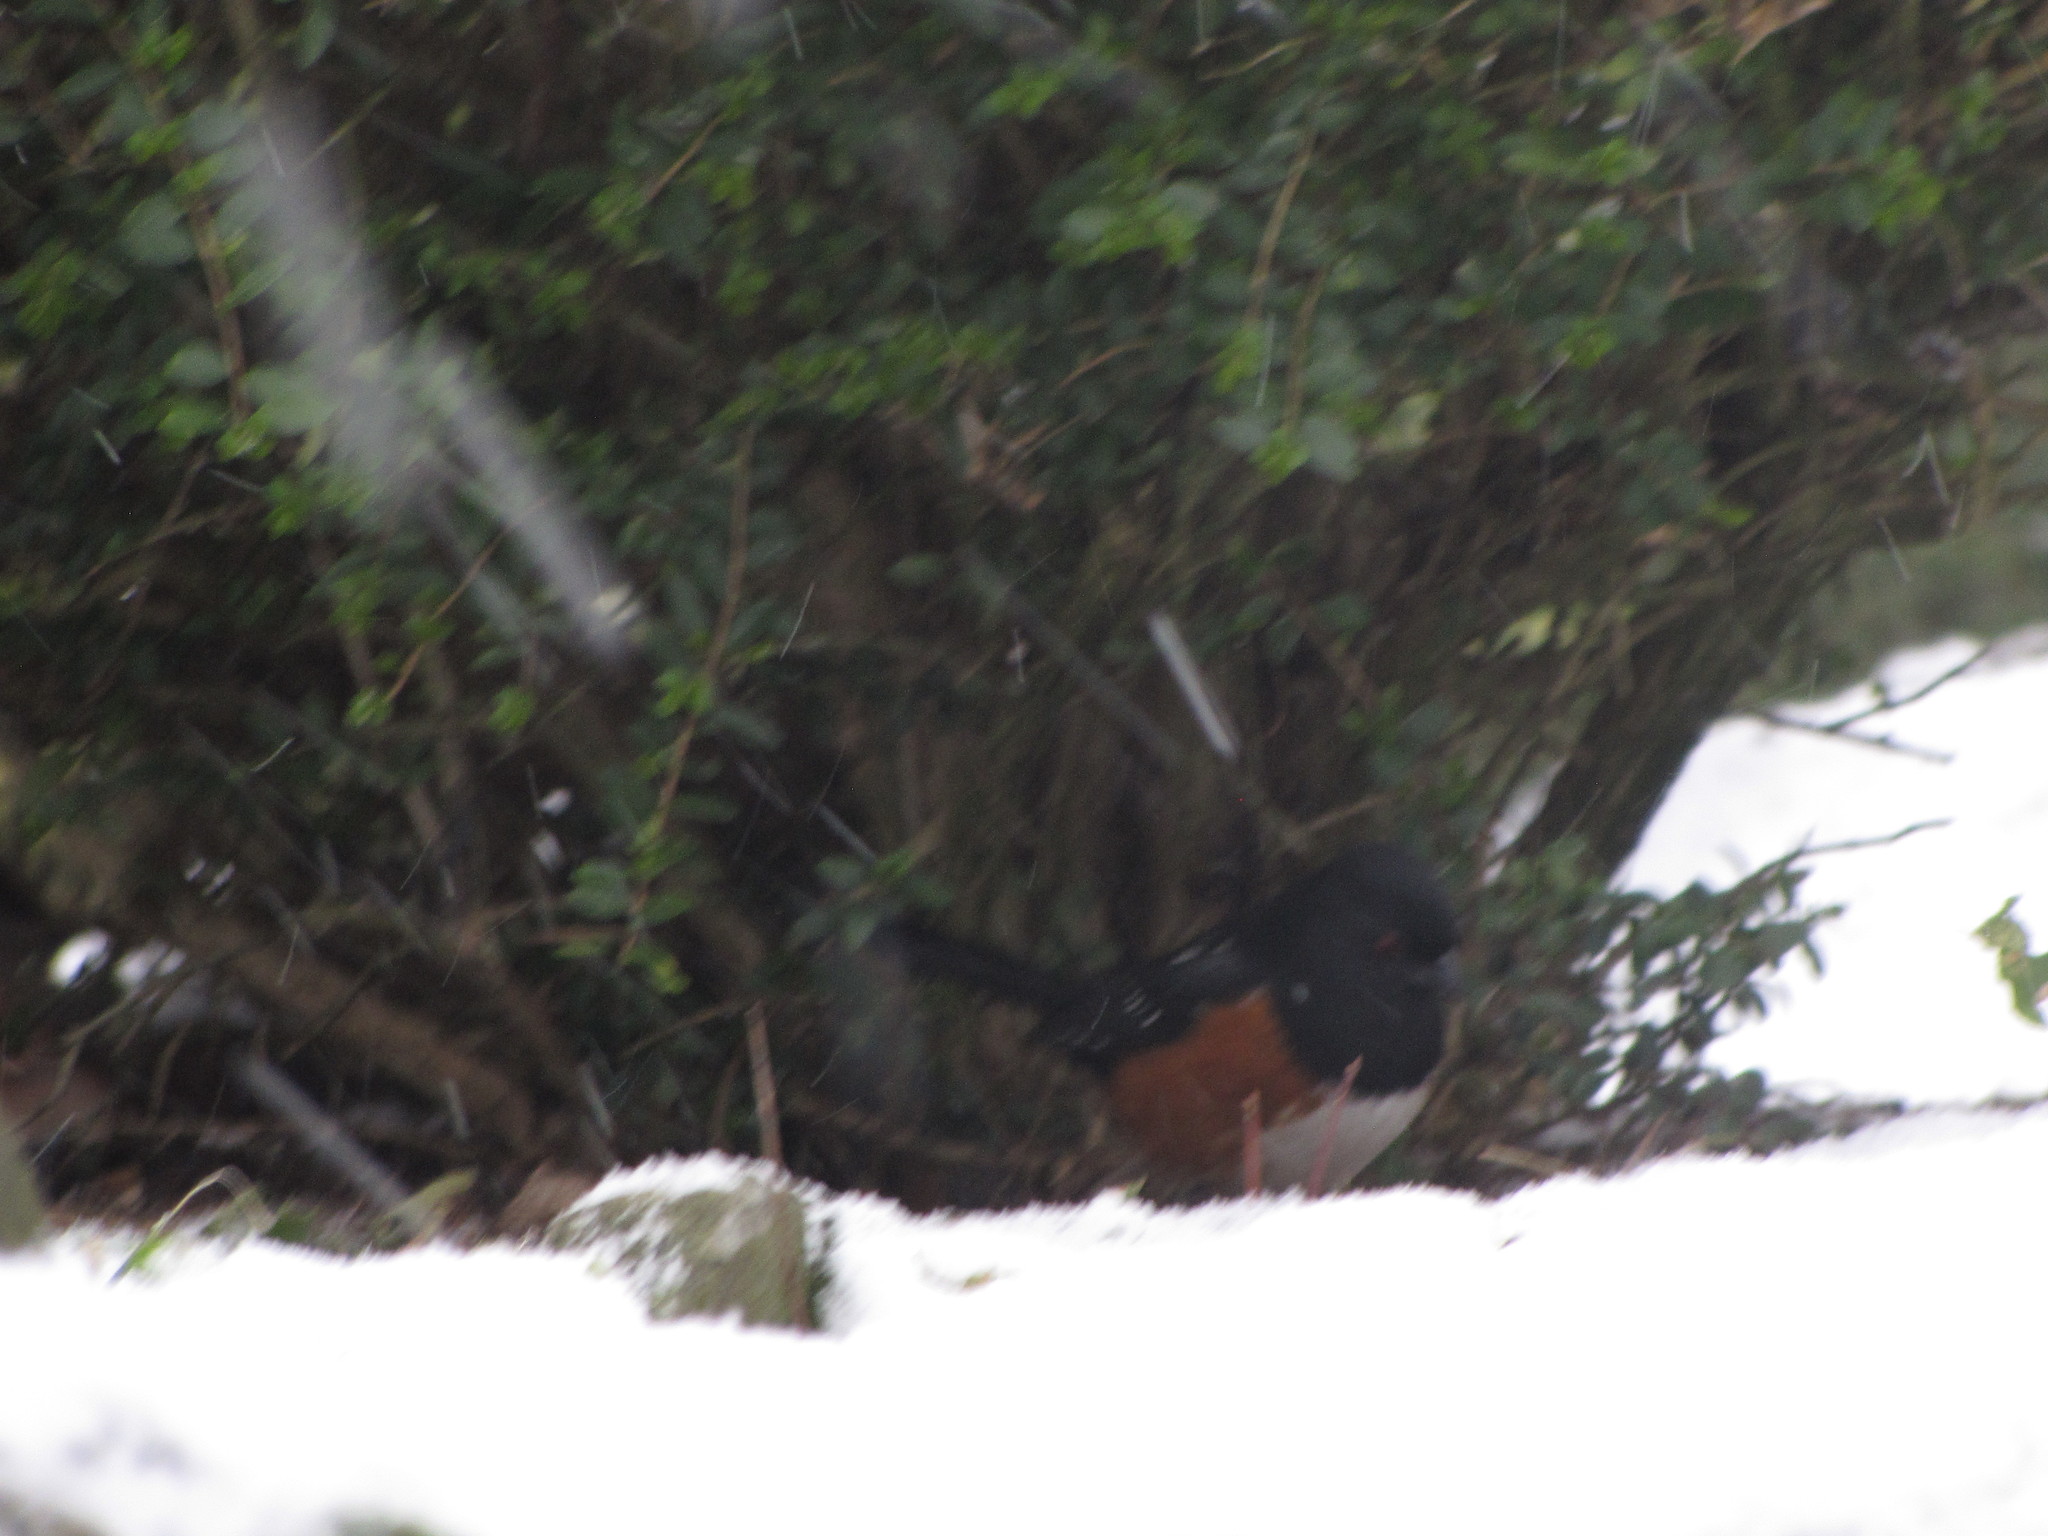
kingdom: Animalia
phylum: Chordata
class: Aves
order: Passeriformes
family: Passerellidae
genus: Pipilo
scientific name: Pipilo maculatus
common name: Spotted towhee
